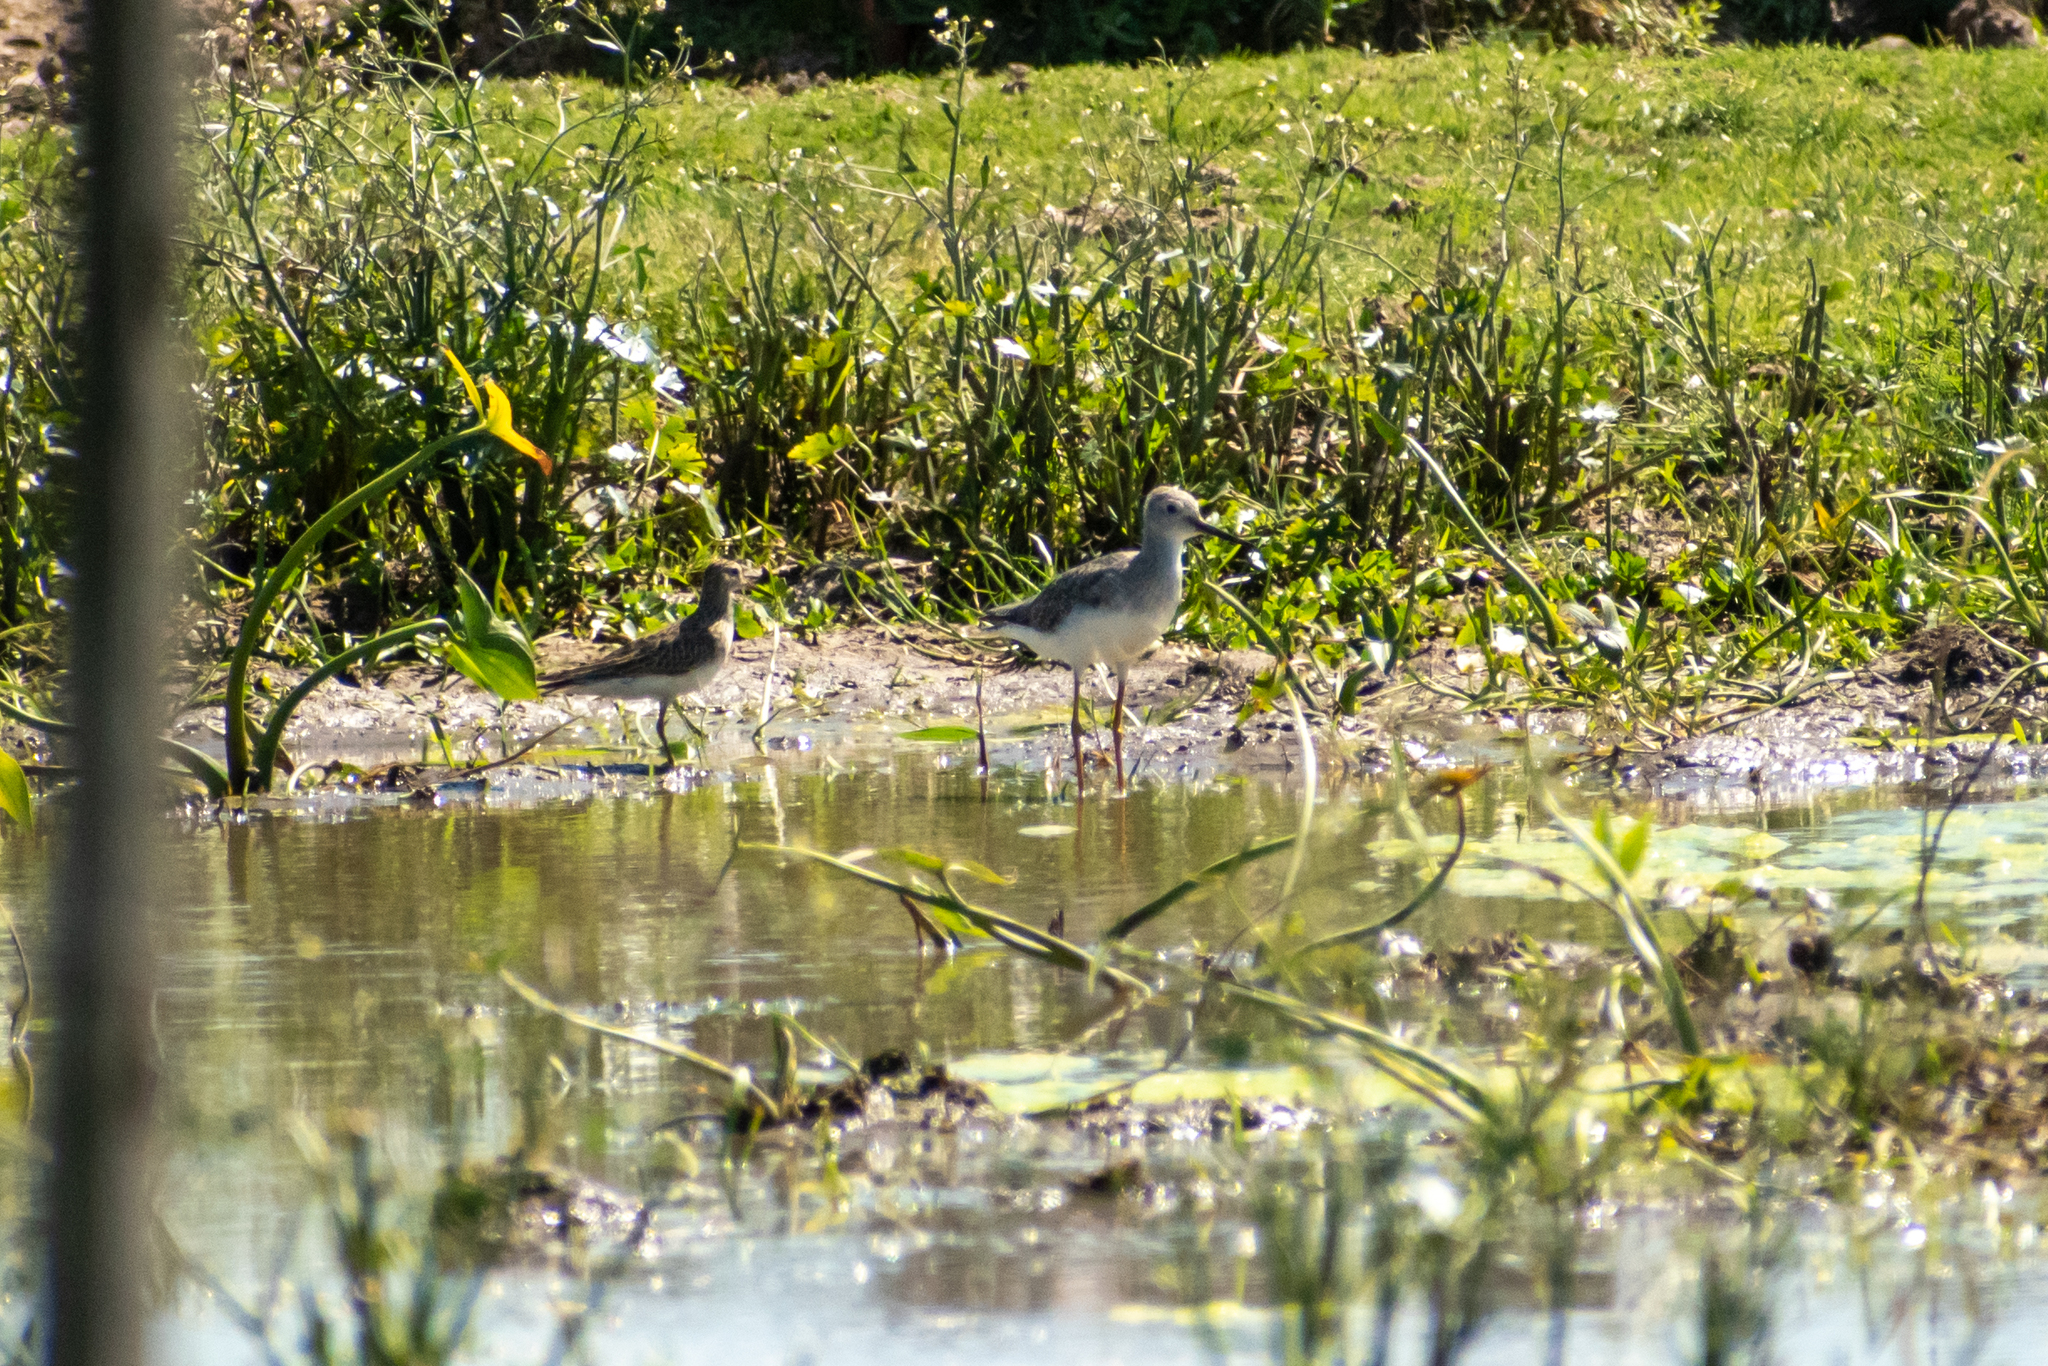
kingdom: Animalia
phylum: Chordata
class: Aves
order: Charadriiformes
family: Scolopacidae
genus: Tringa
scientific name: Tringa melanoleuca
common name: Greater yellowlegs
